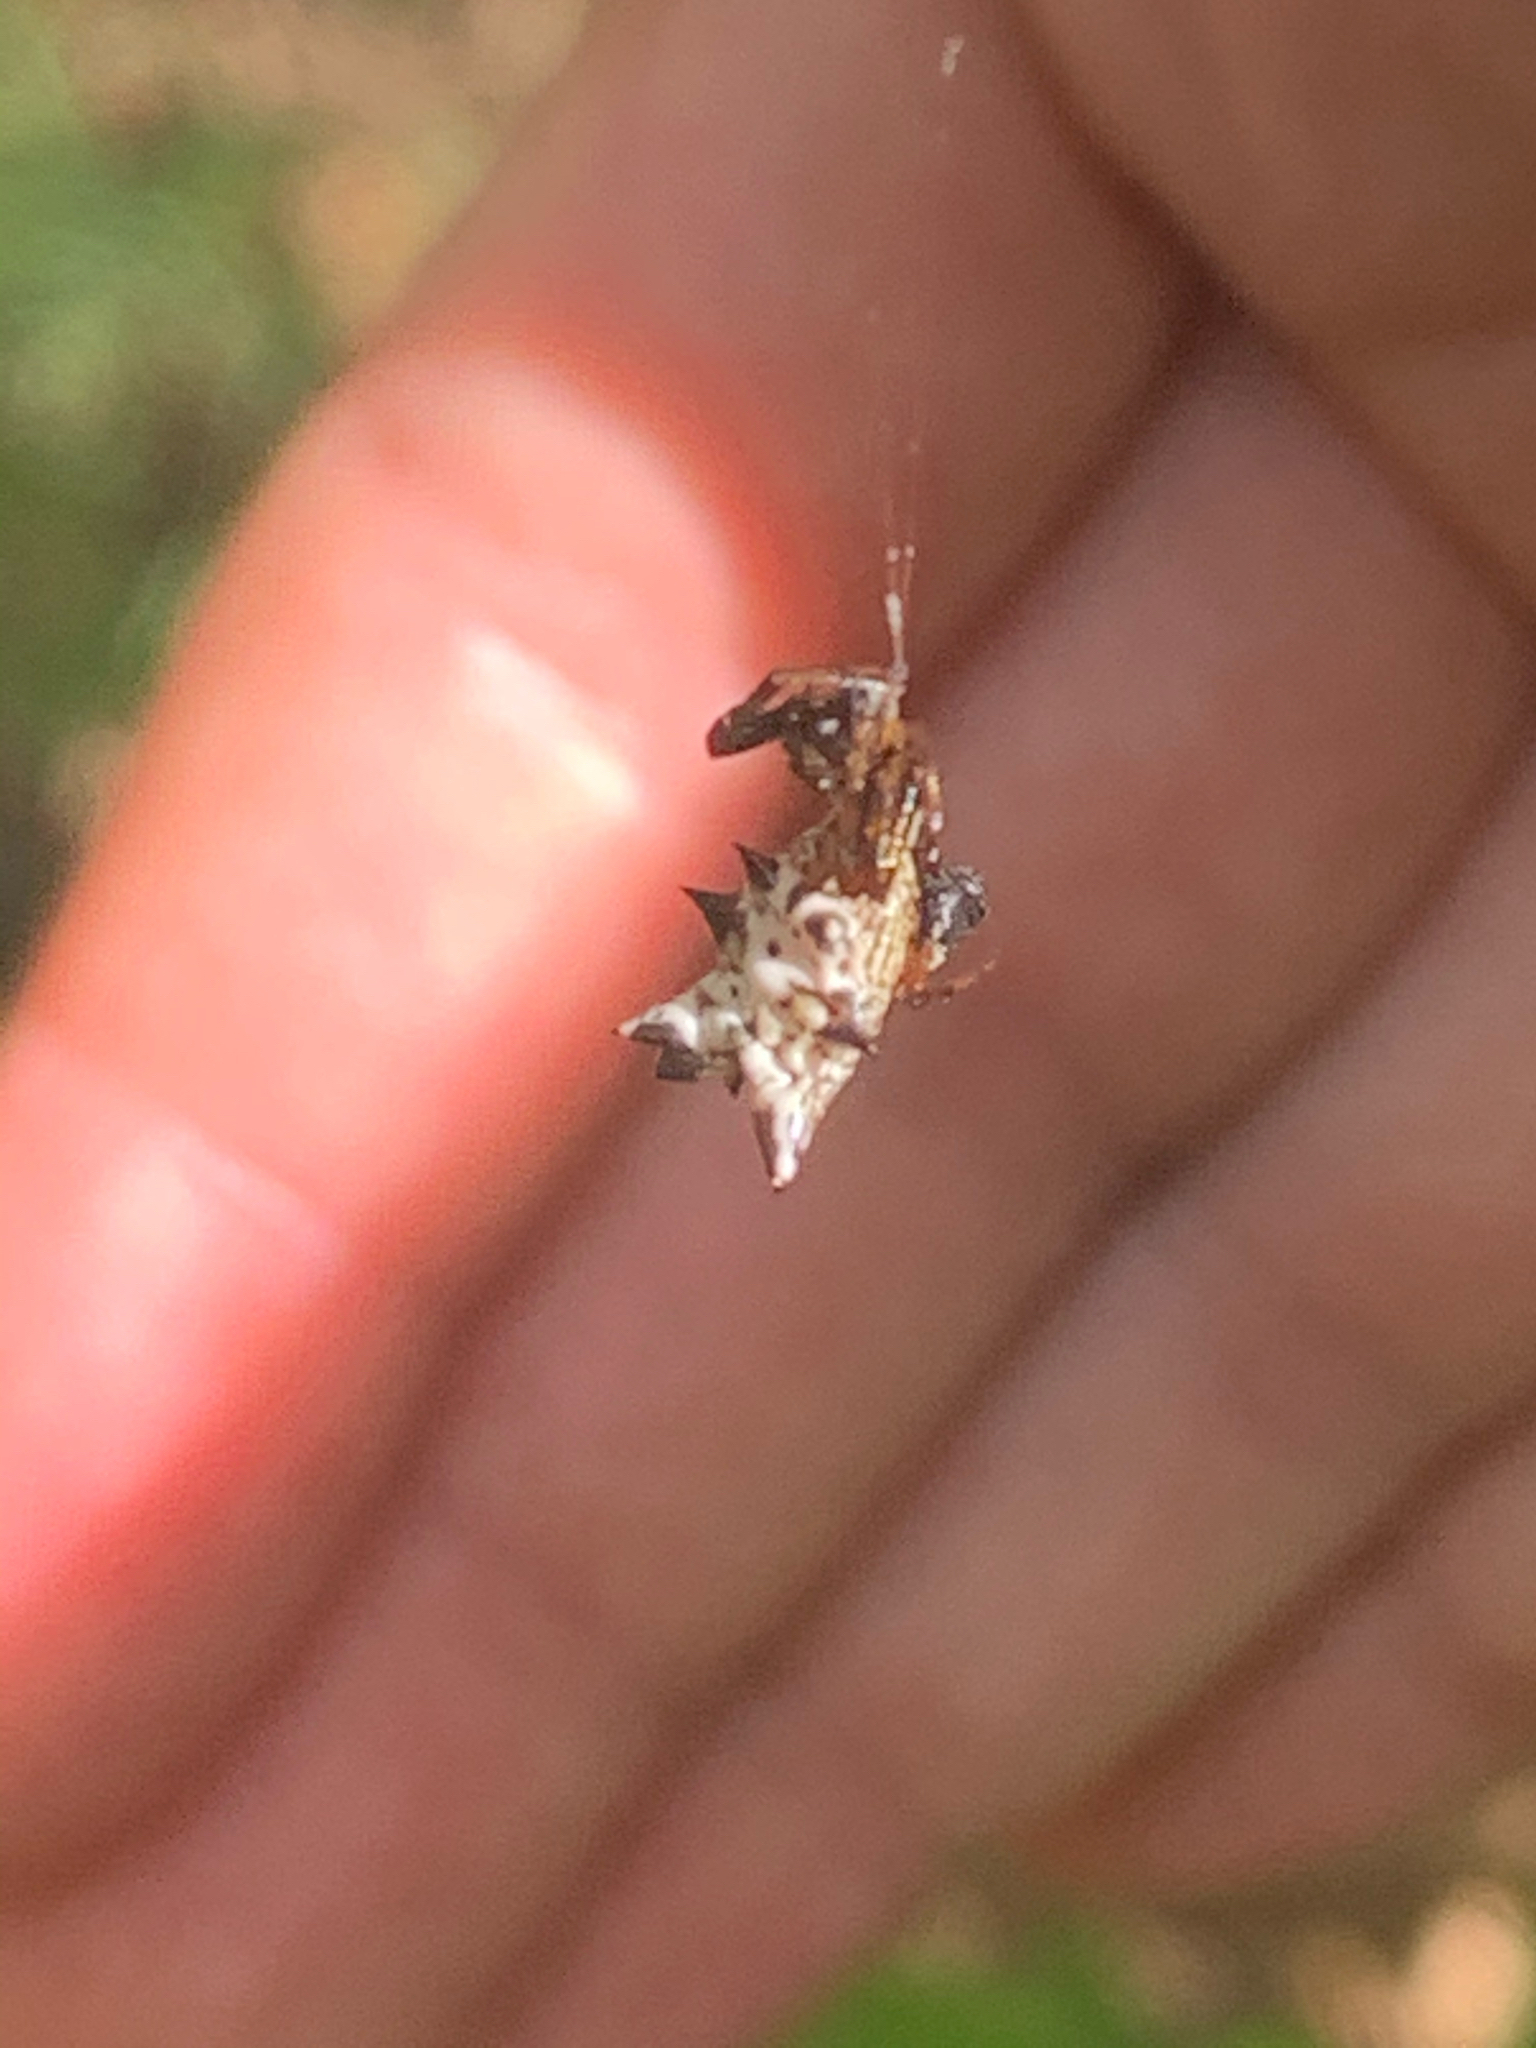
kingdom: Animalia
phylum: Arthropoda
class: Arachnida
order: Araneae
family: Araneidae
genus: Micrathena
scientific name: Micrathena gracilis
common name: Orb weavers
